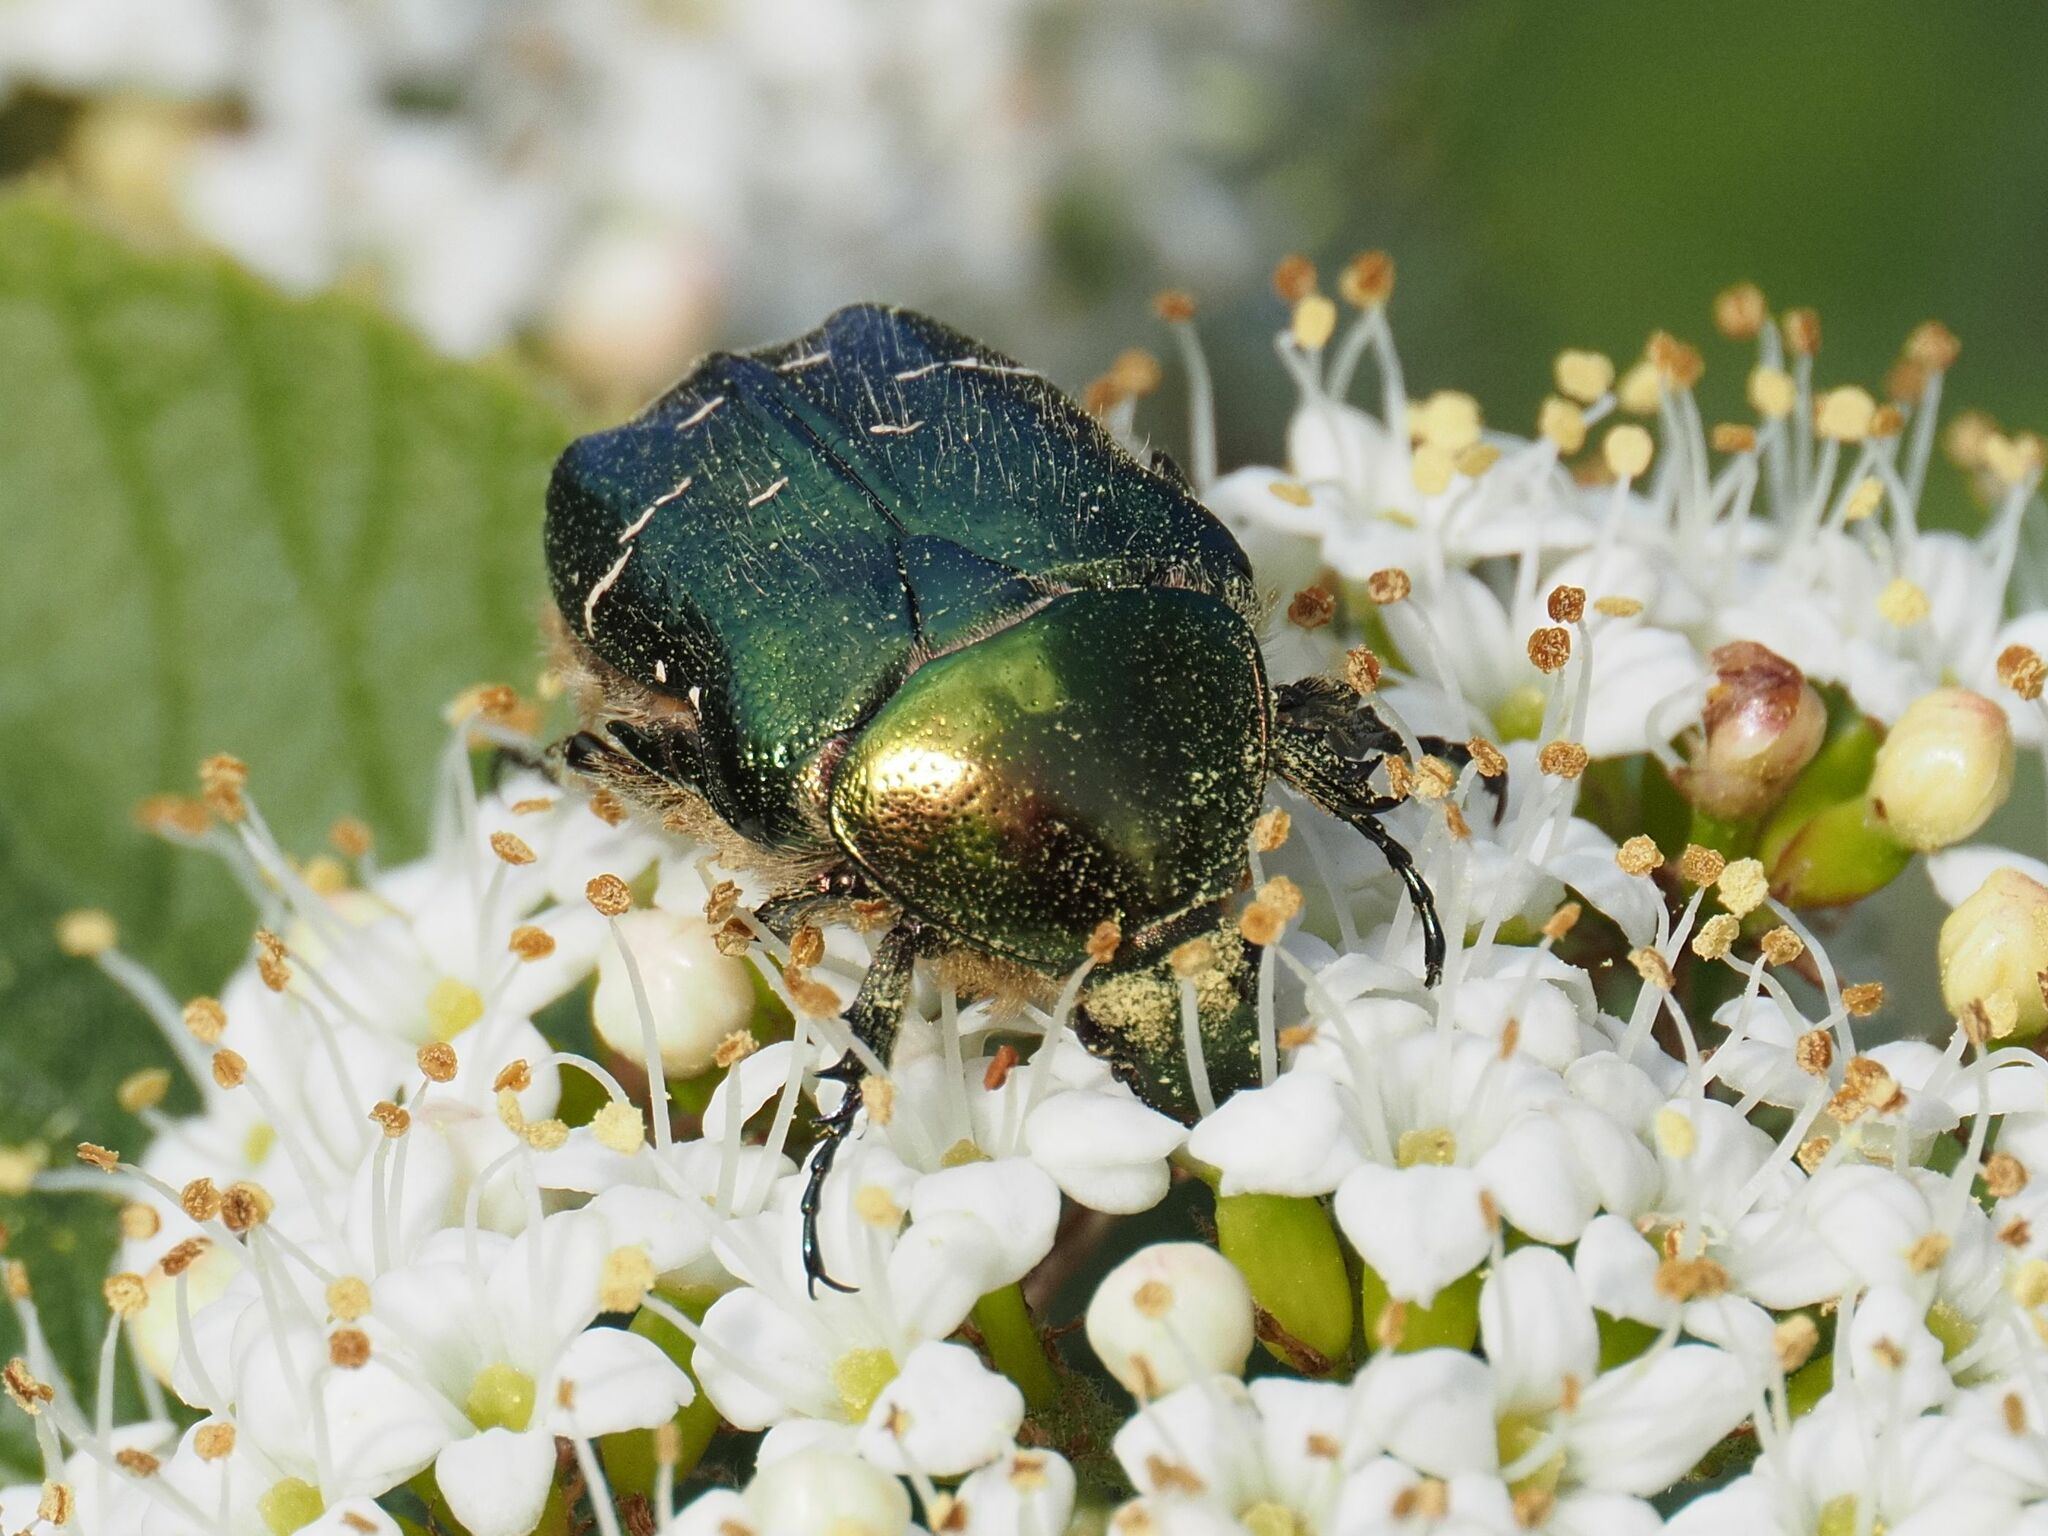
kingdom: Animalia
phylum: Arthropoda
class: Insecta
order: Coleoptera
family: Scarabaeidae
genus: Cetonia
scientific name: Cetonia aurata
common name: Rose chafer
